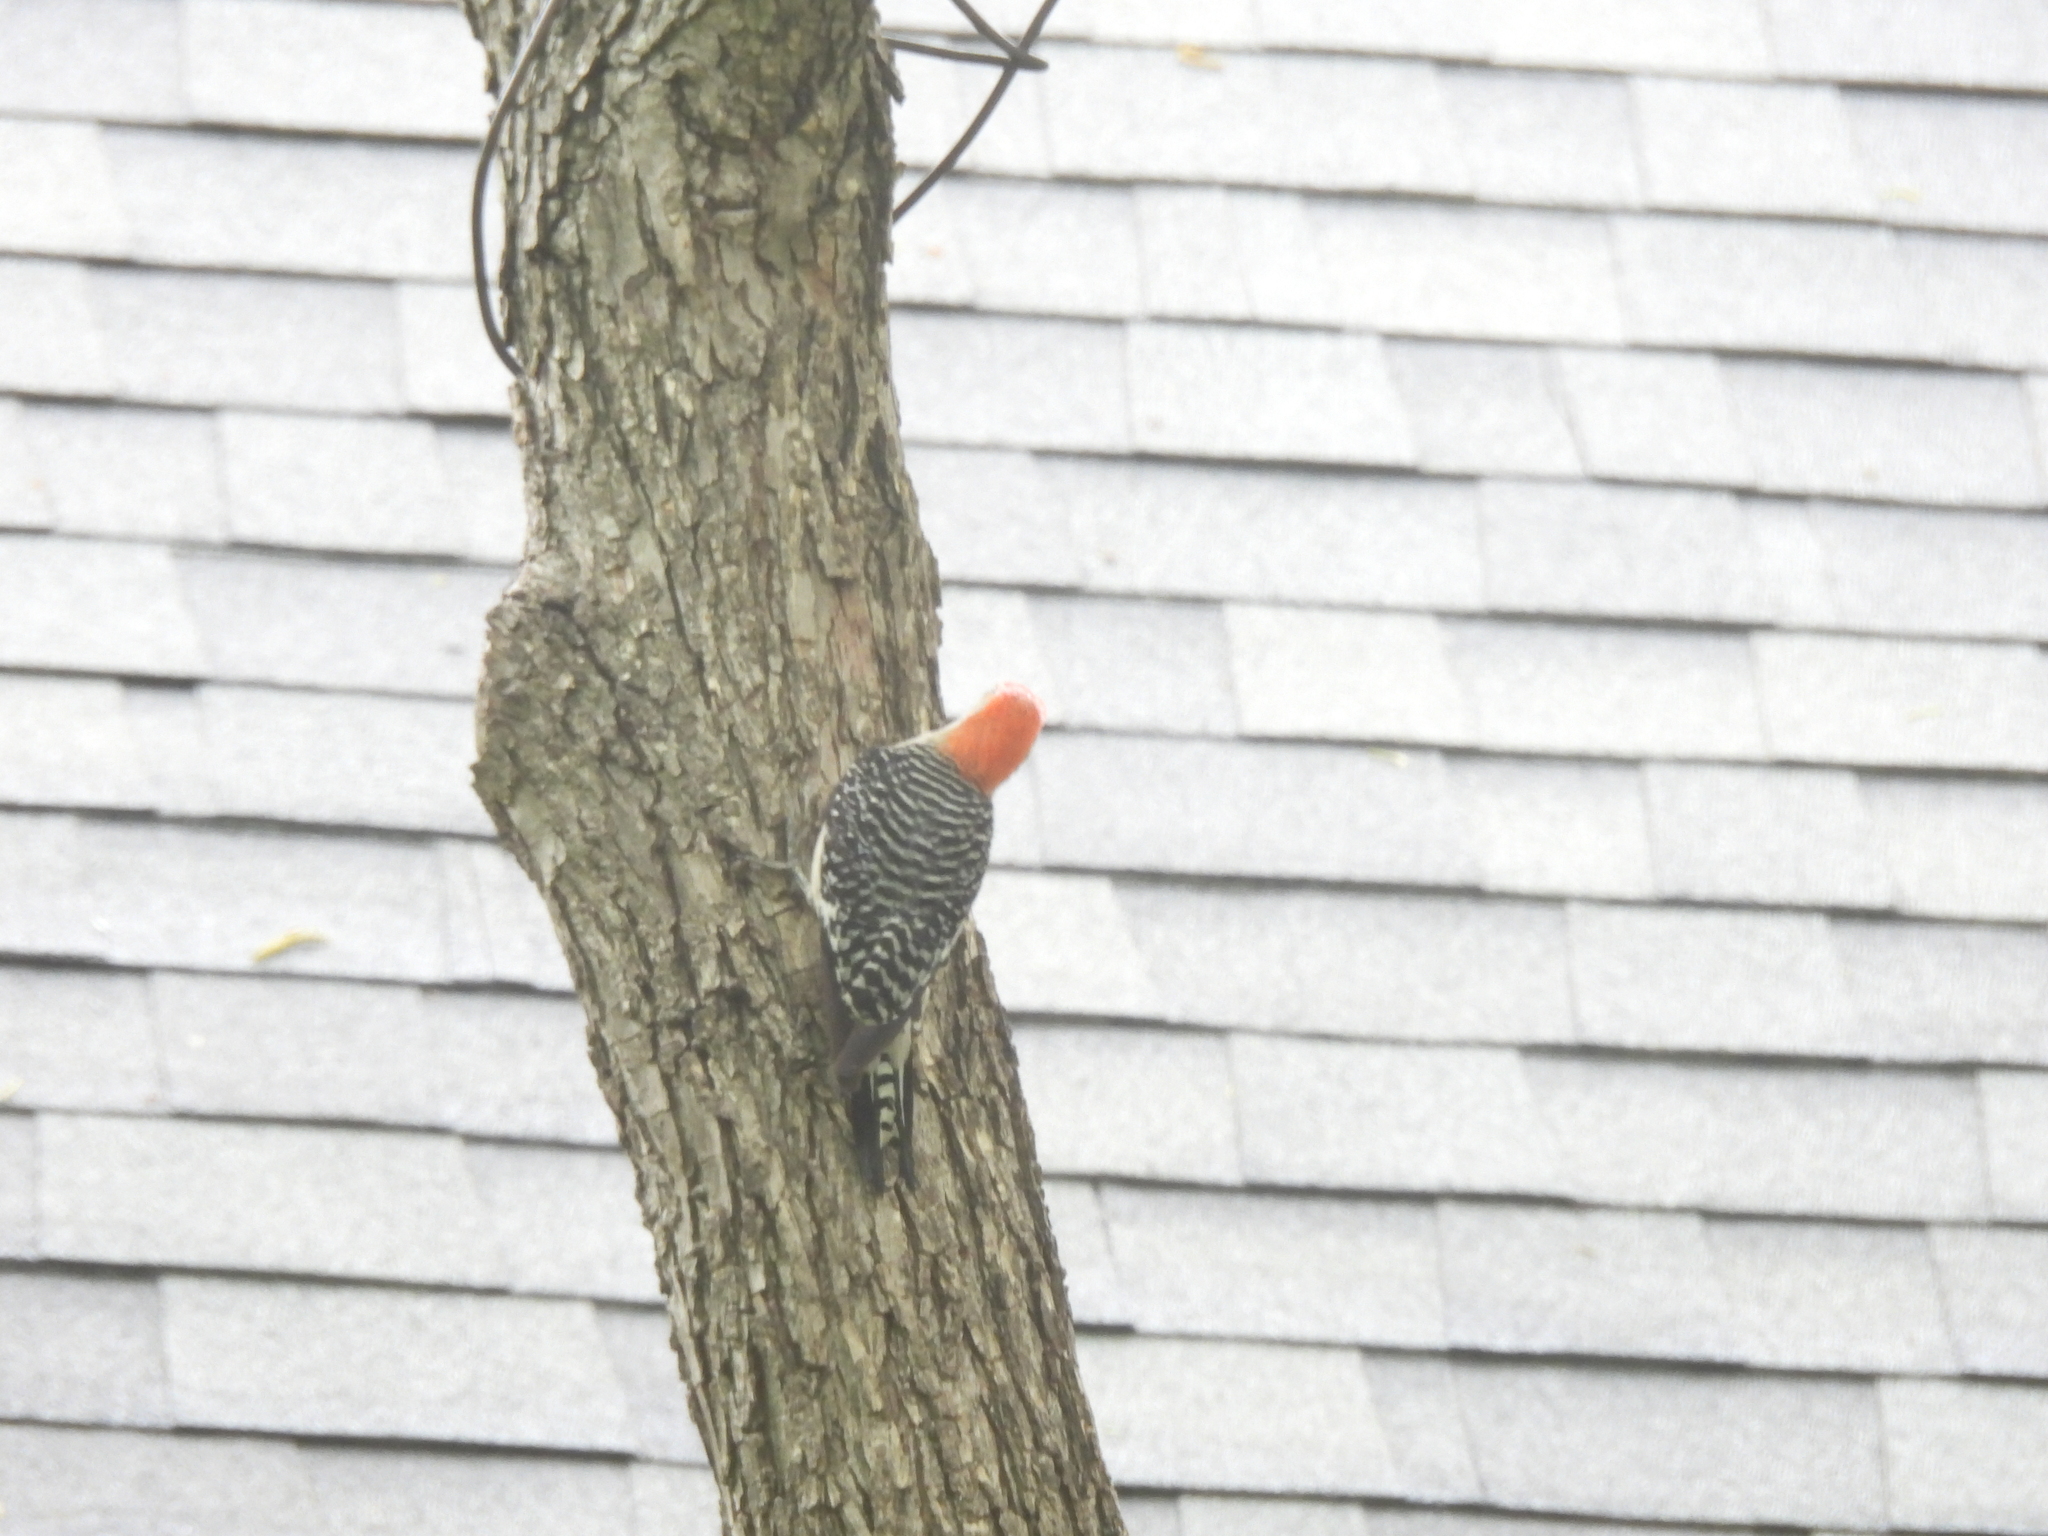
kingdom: Animalia
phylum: Chordata
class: Aves
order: Piciformes
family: Picidae
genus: Melanerpes
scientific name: Melanerpes carolinus
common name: Red-bellied woodpecker
